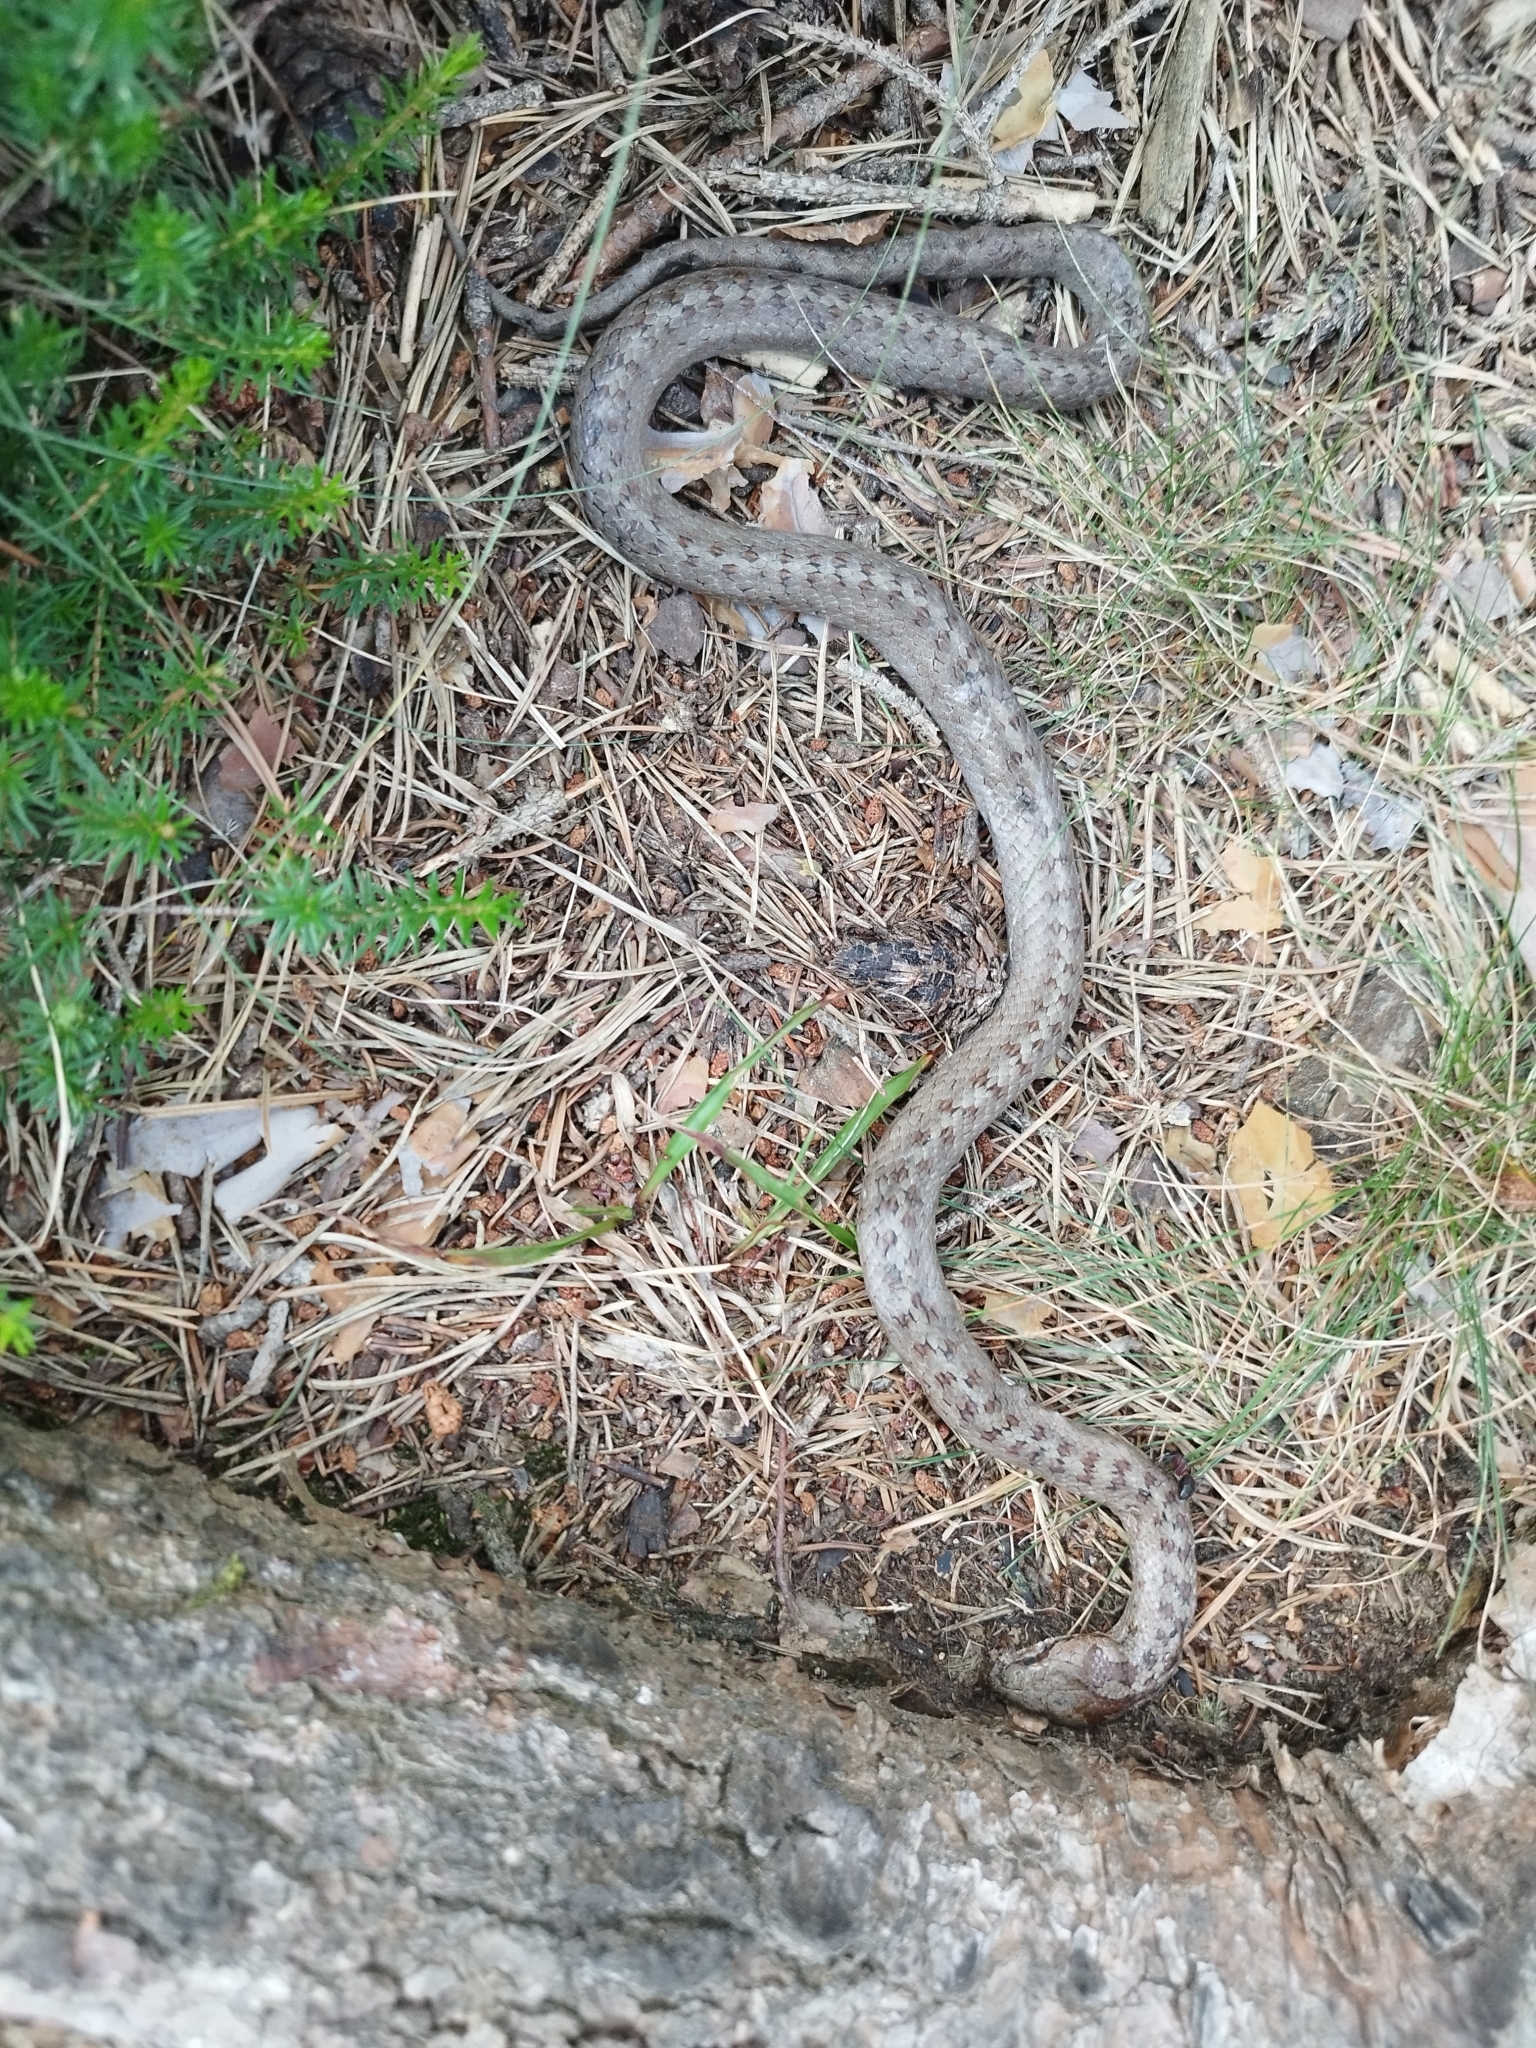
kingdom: Animalia
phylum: Chordata
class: Squamata
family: Colubridae
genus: Coronella
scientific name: Coronella austriaca
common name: Smooth snake
